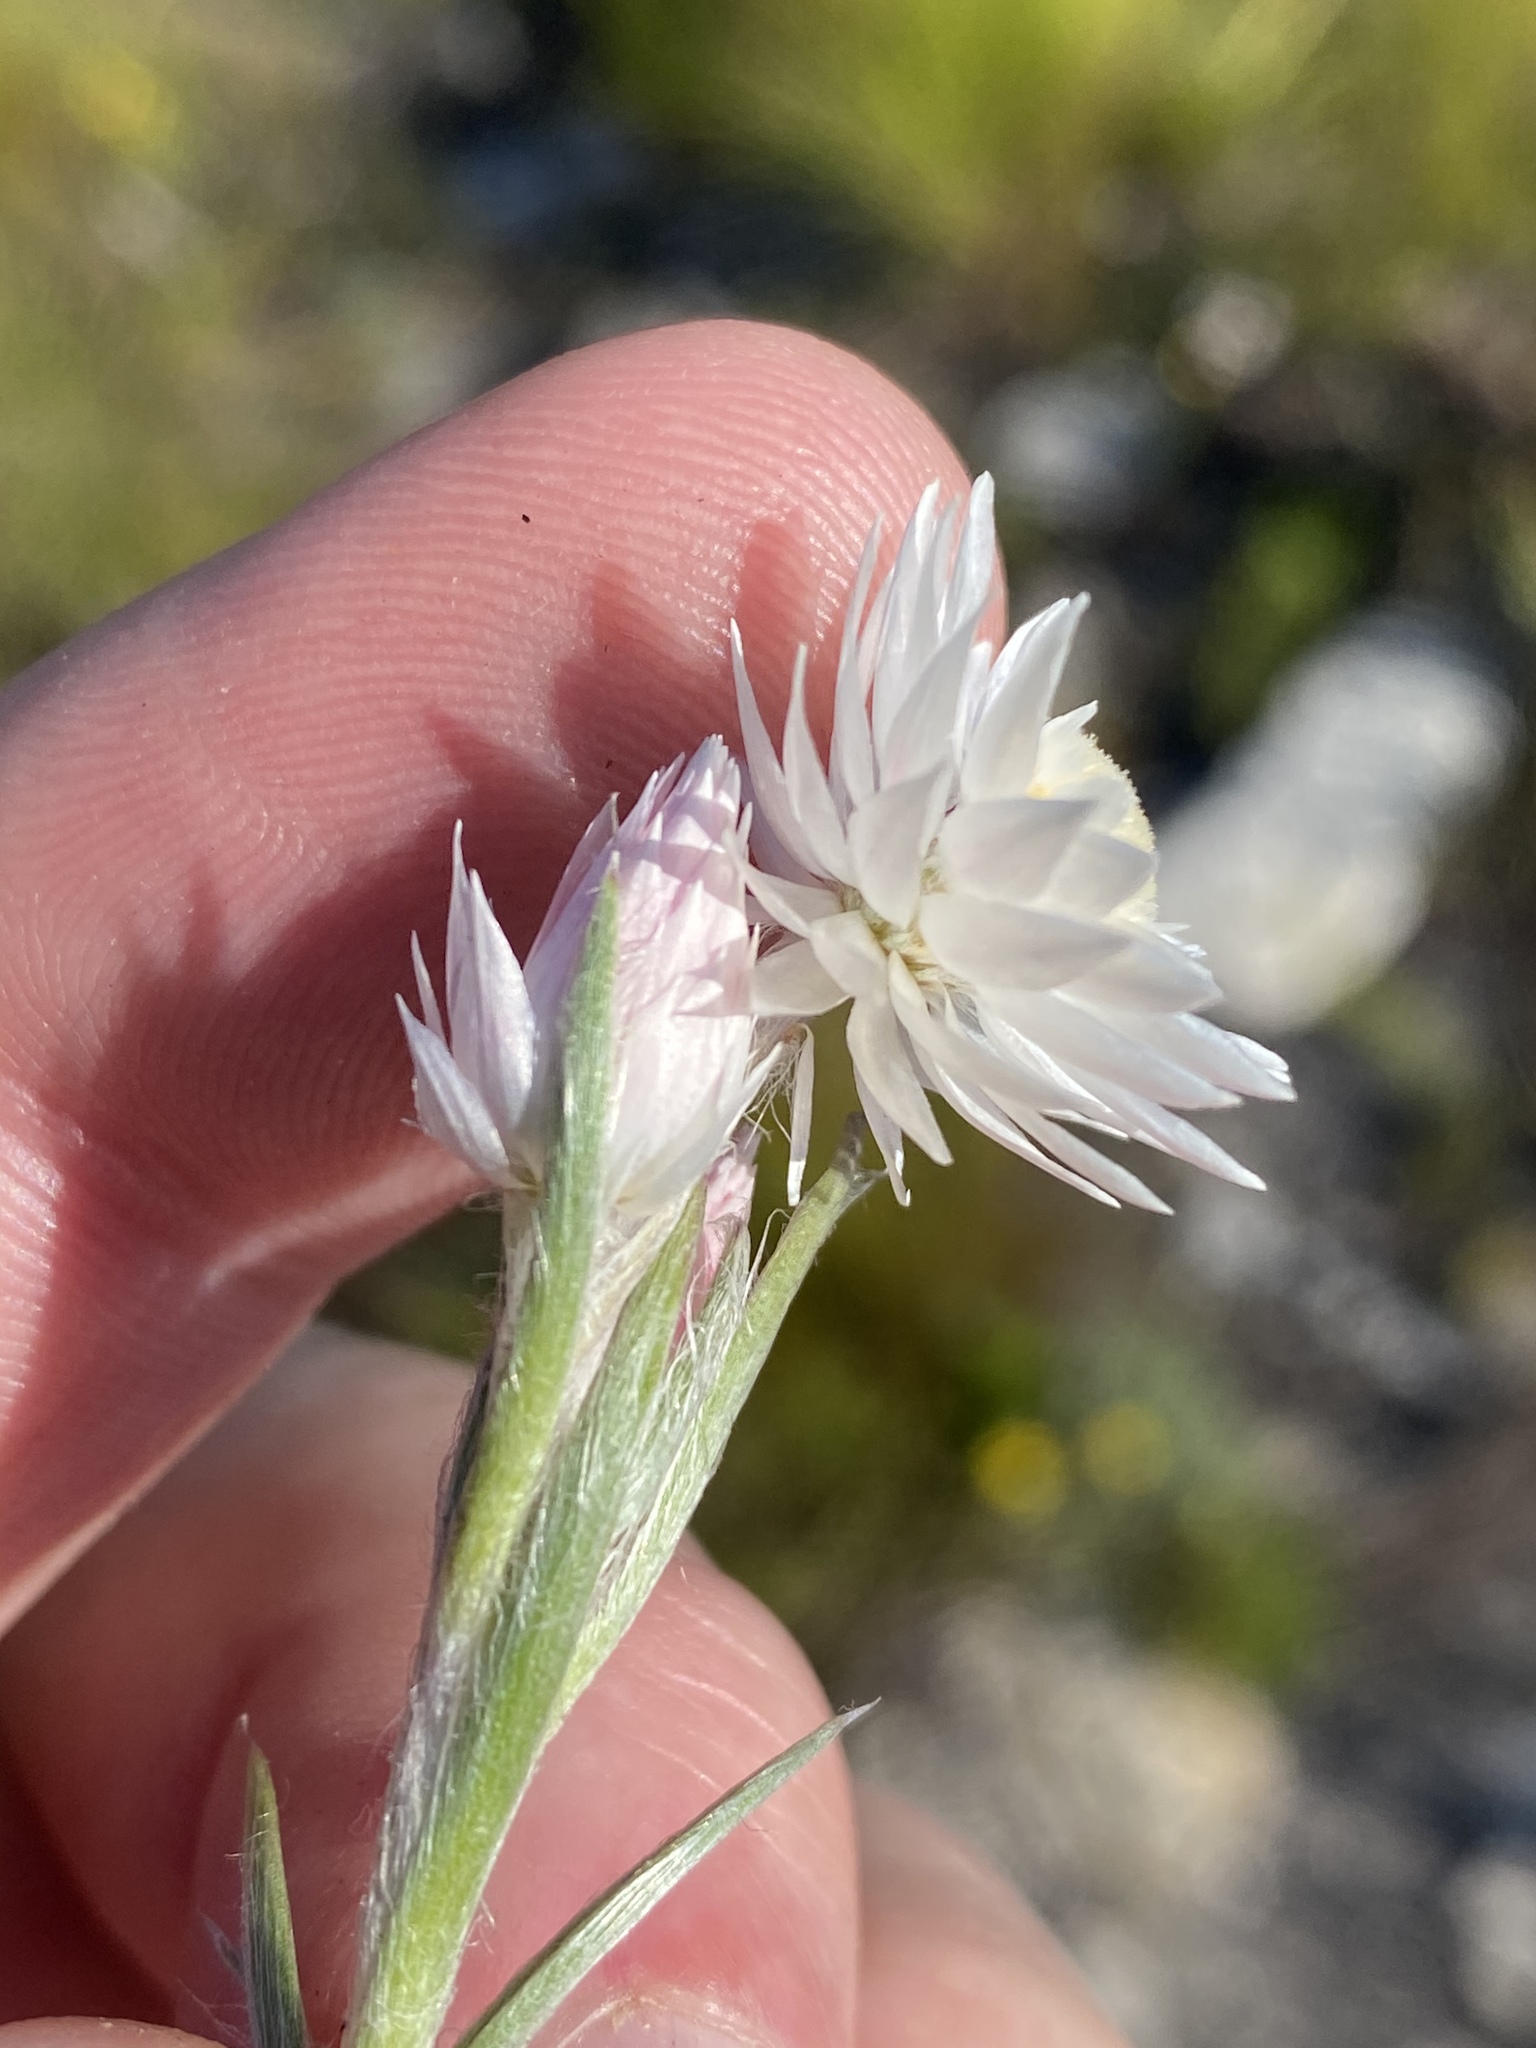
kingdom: Plantae
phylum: Tracheophyta
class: Magnoliopsida
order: Asterales
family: Asteraceae
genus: Achyranthemum
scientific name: Achyranthemum paniculatum
